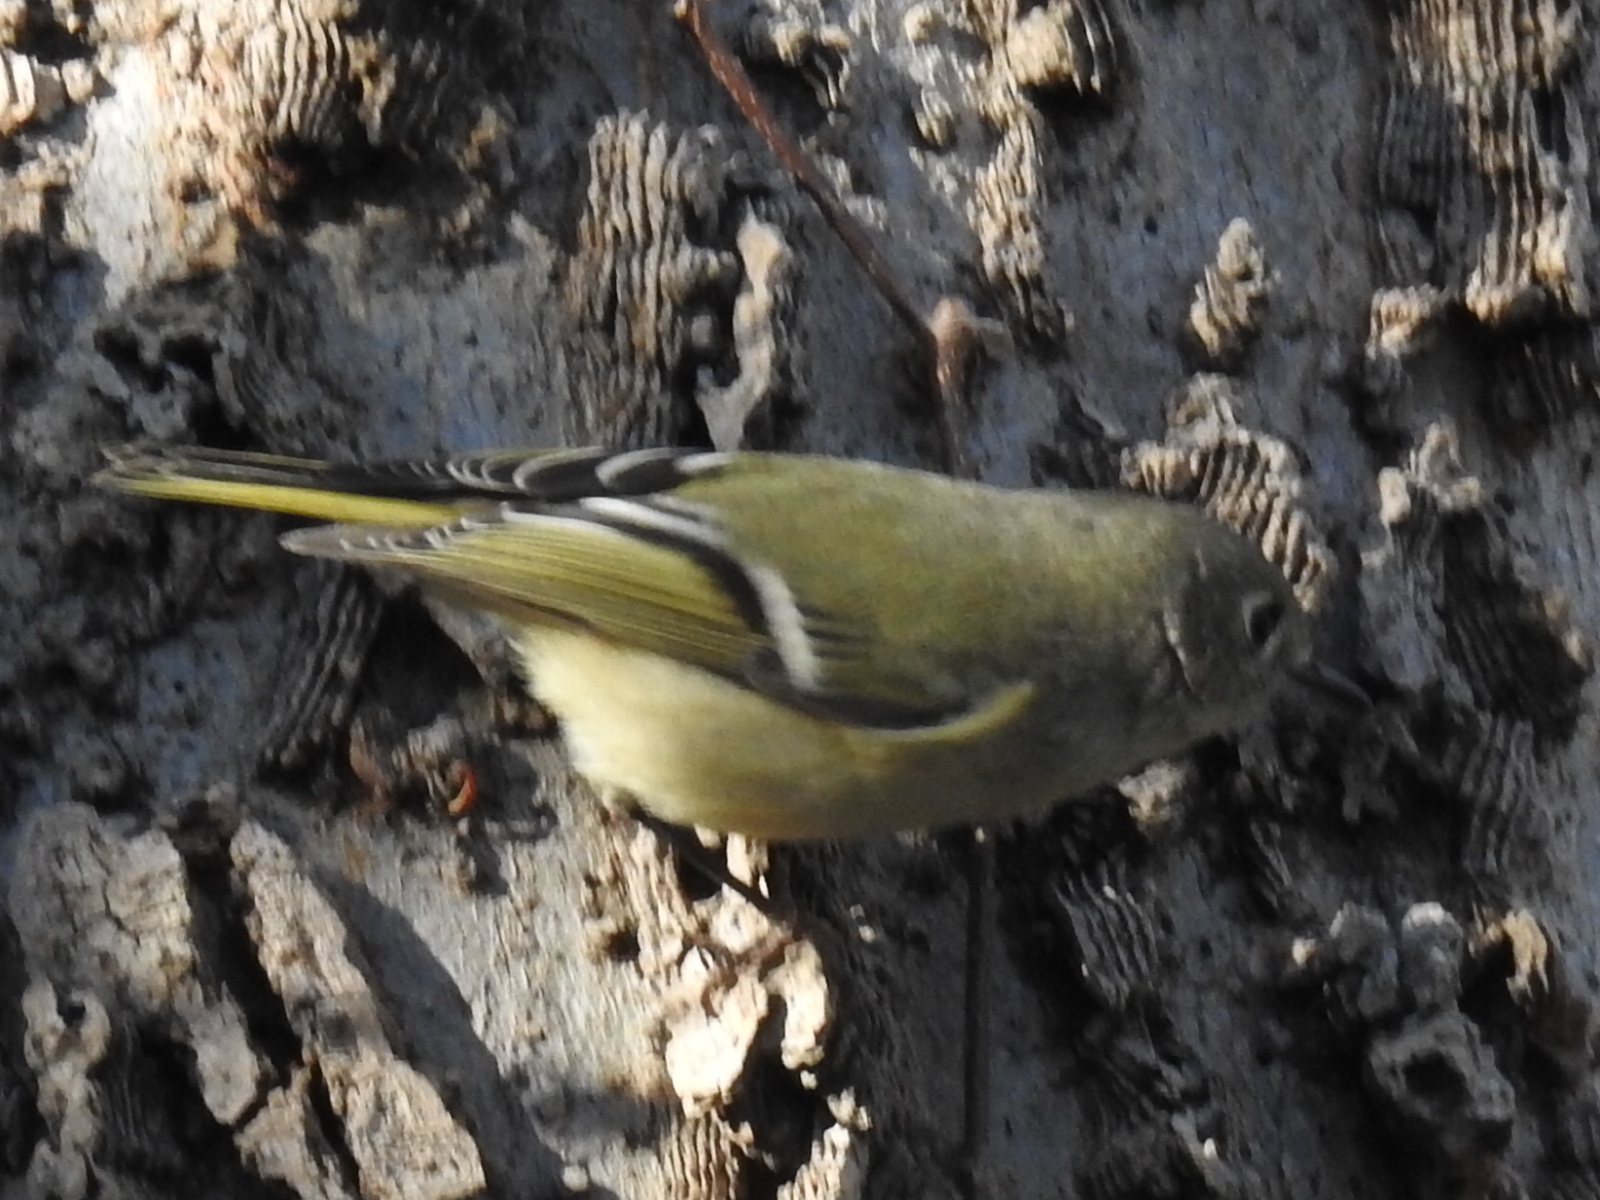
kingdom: Animalia
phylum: Chordata
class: Aves
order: Passeriformes
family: Regulidae
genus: Regulus
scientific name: Regulus calendula
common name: Ruby-crowned kinglet
